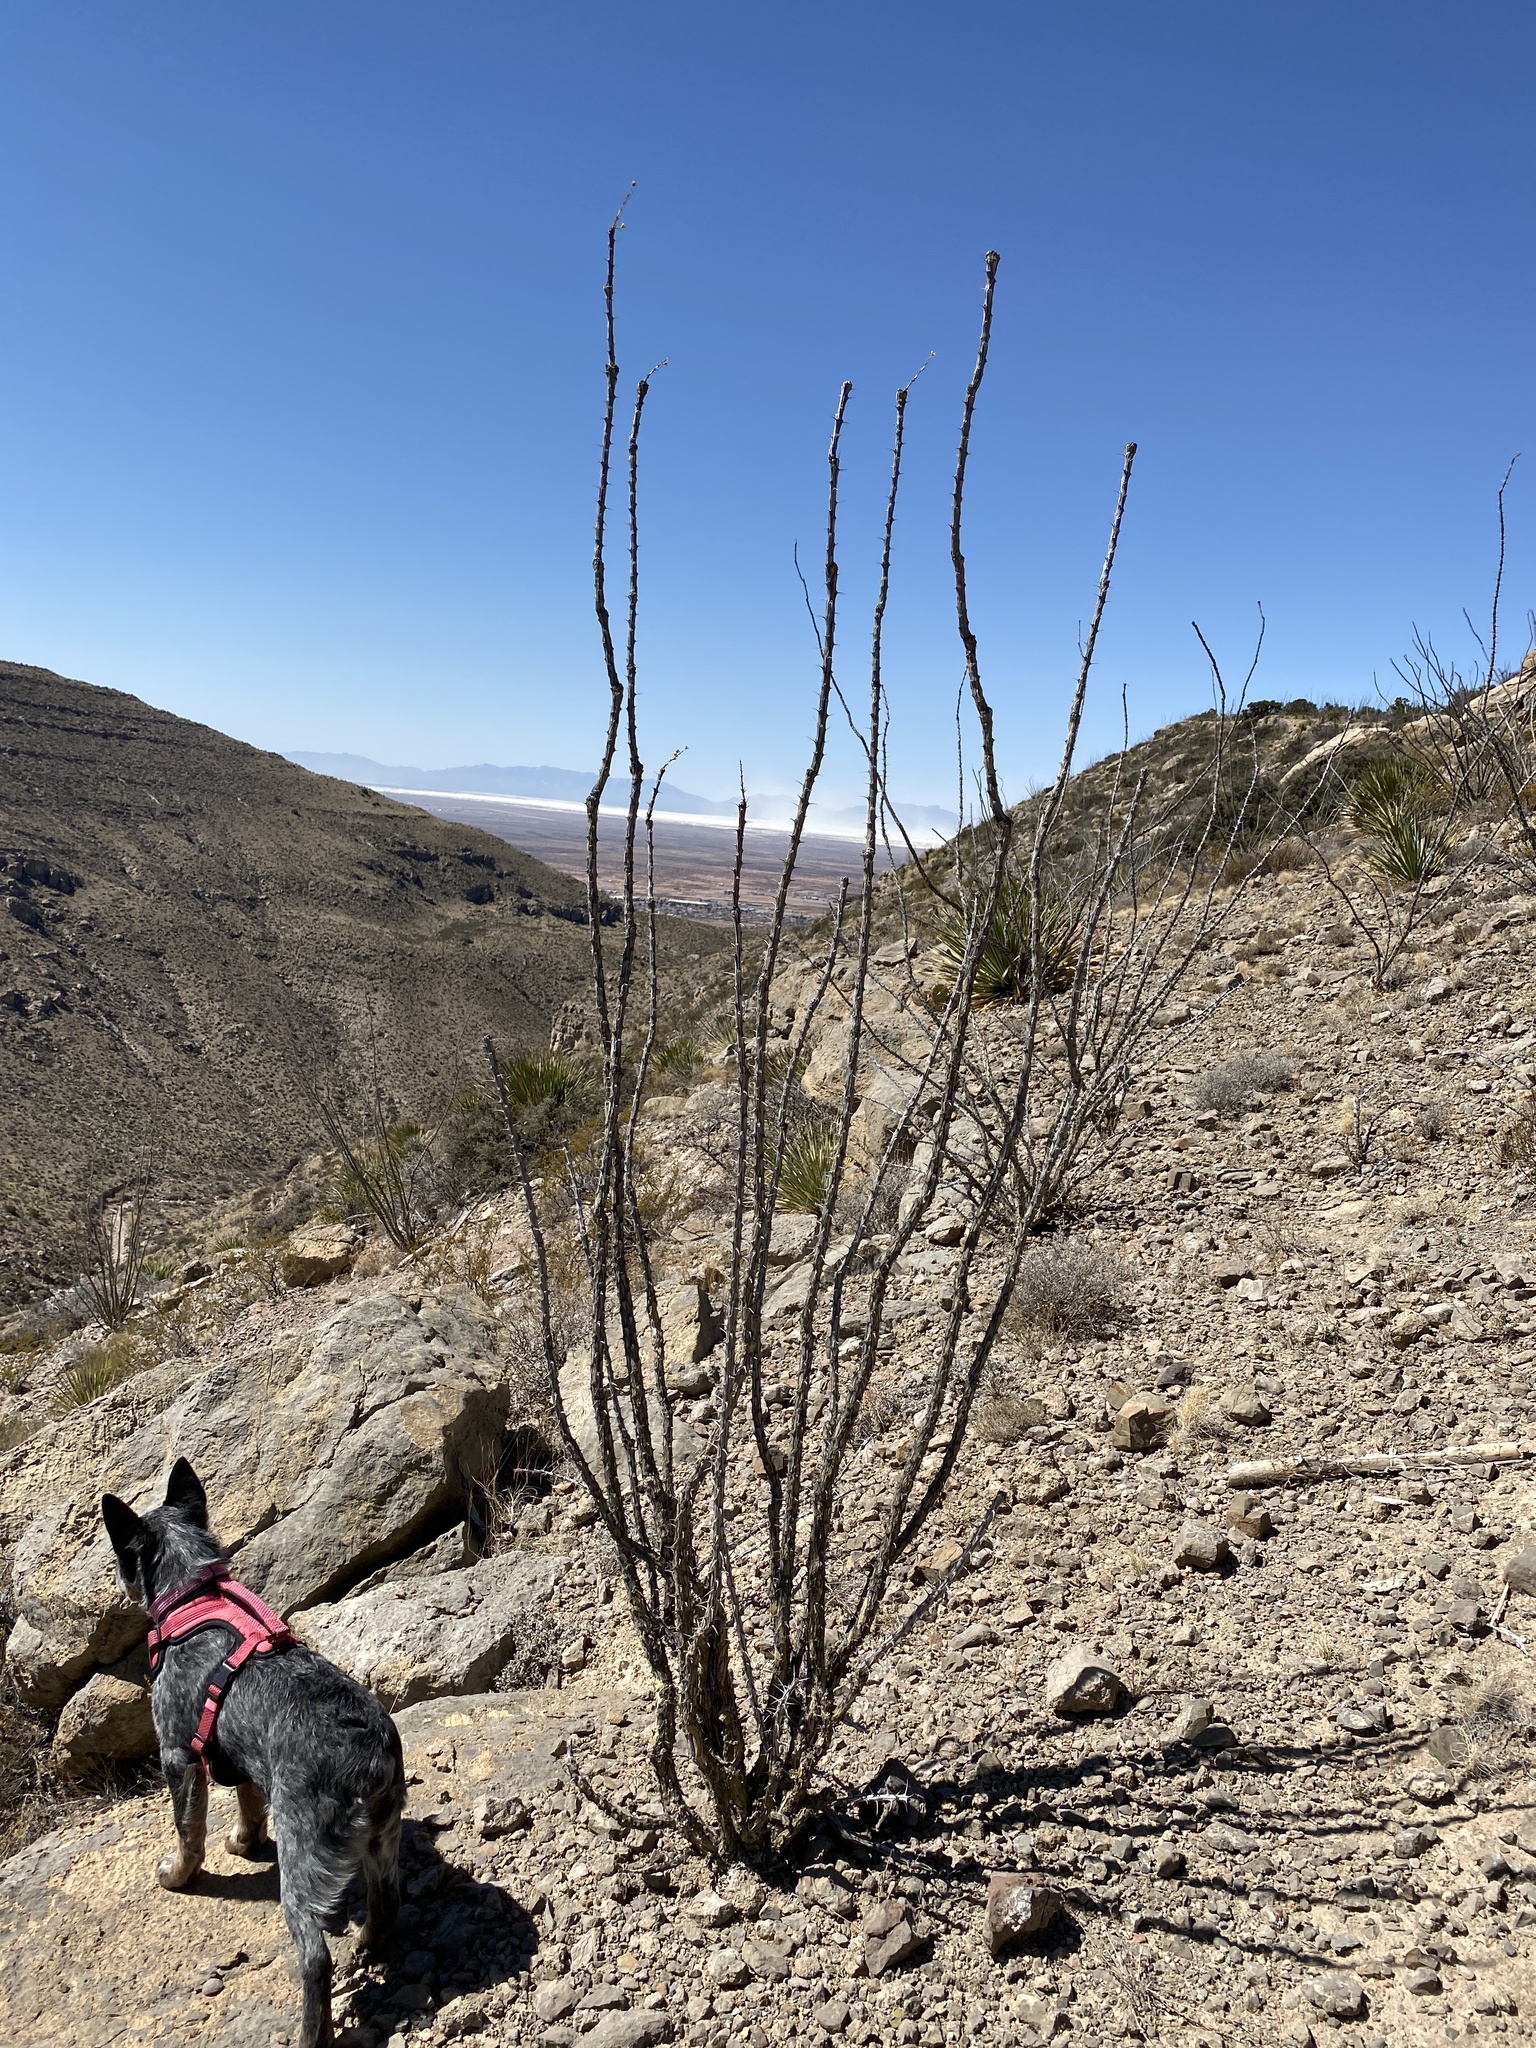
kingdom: Plantae
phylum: Tracheophyta
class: Magnoliopsida
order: Ericales
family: Fouquieriaceae
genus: Fouquieria
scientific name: Fouquieria splendens
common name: Vine-cactus
